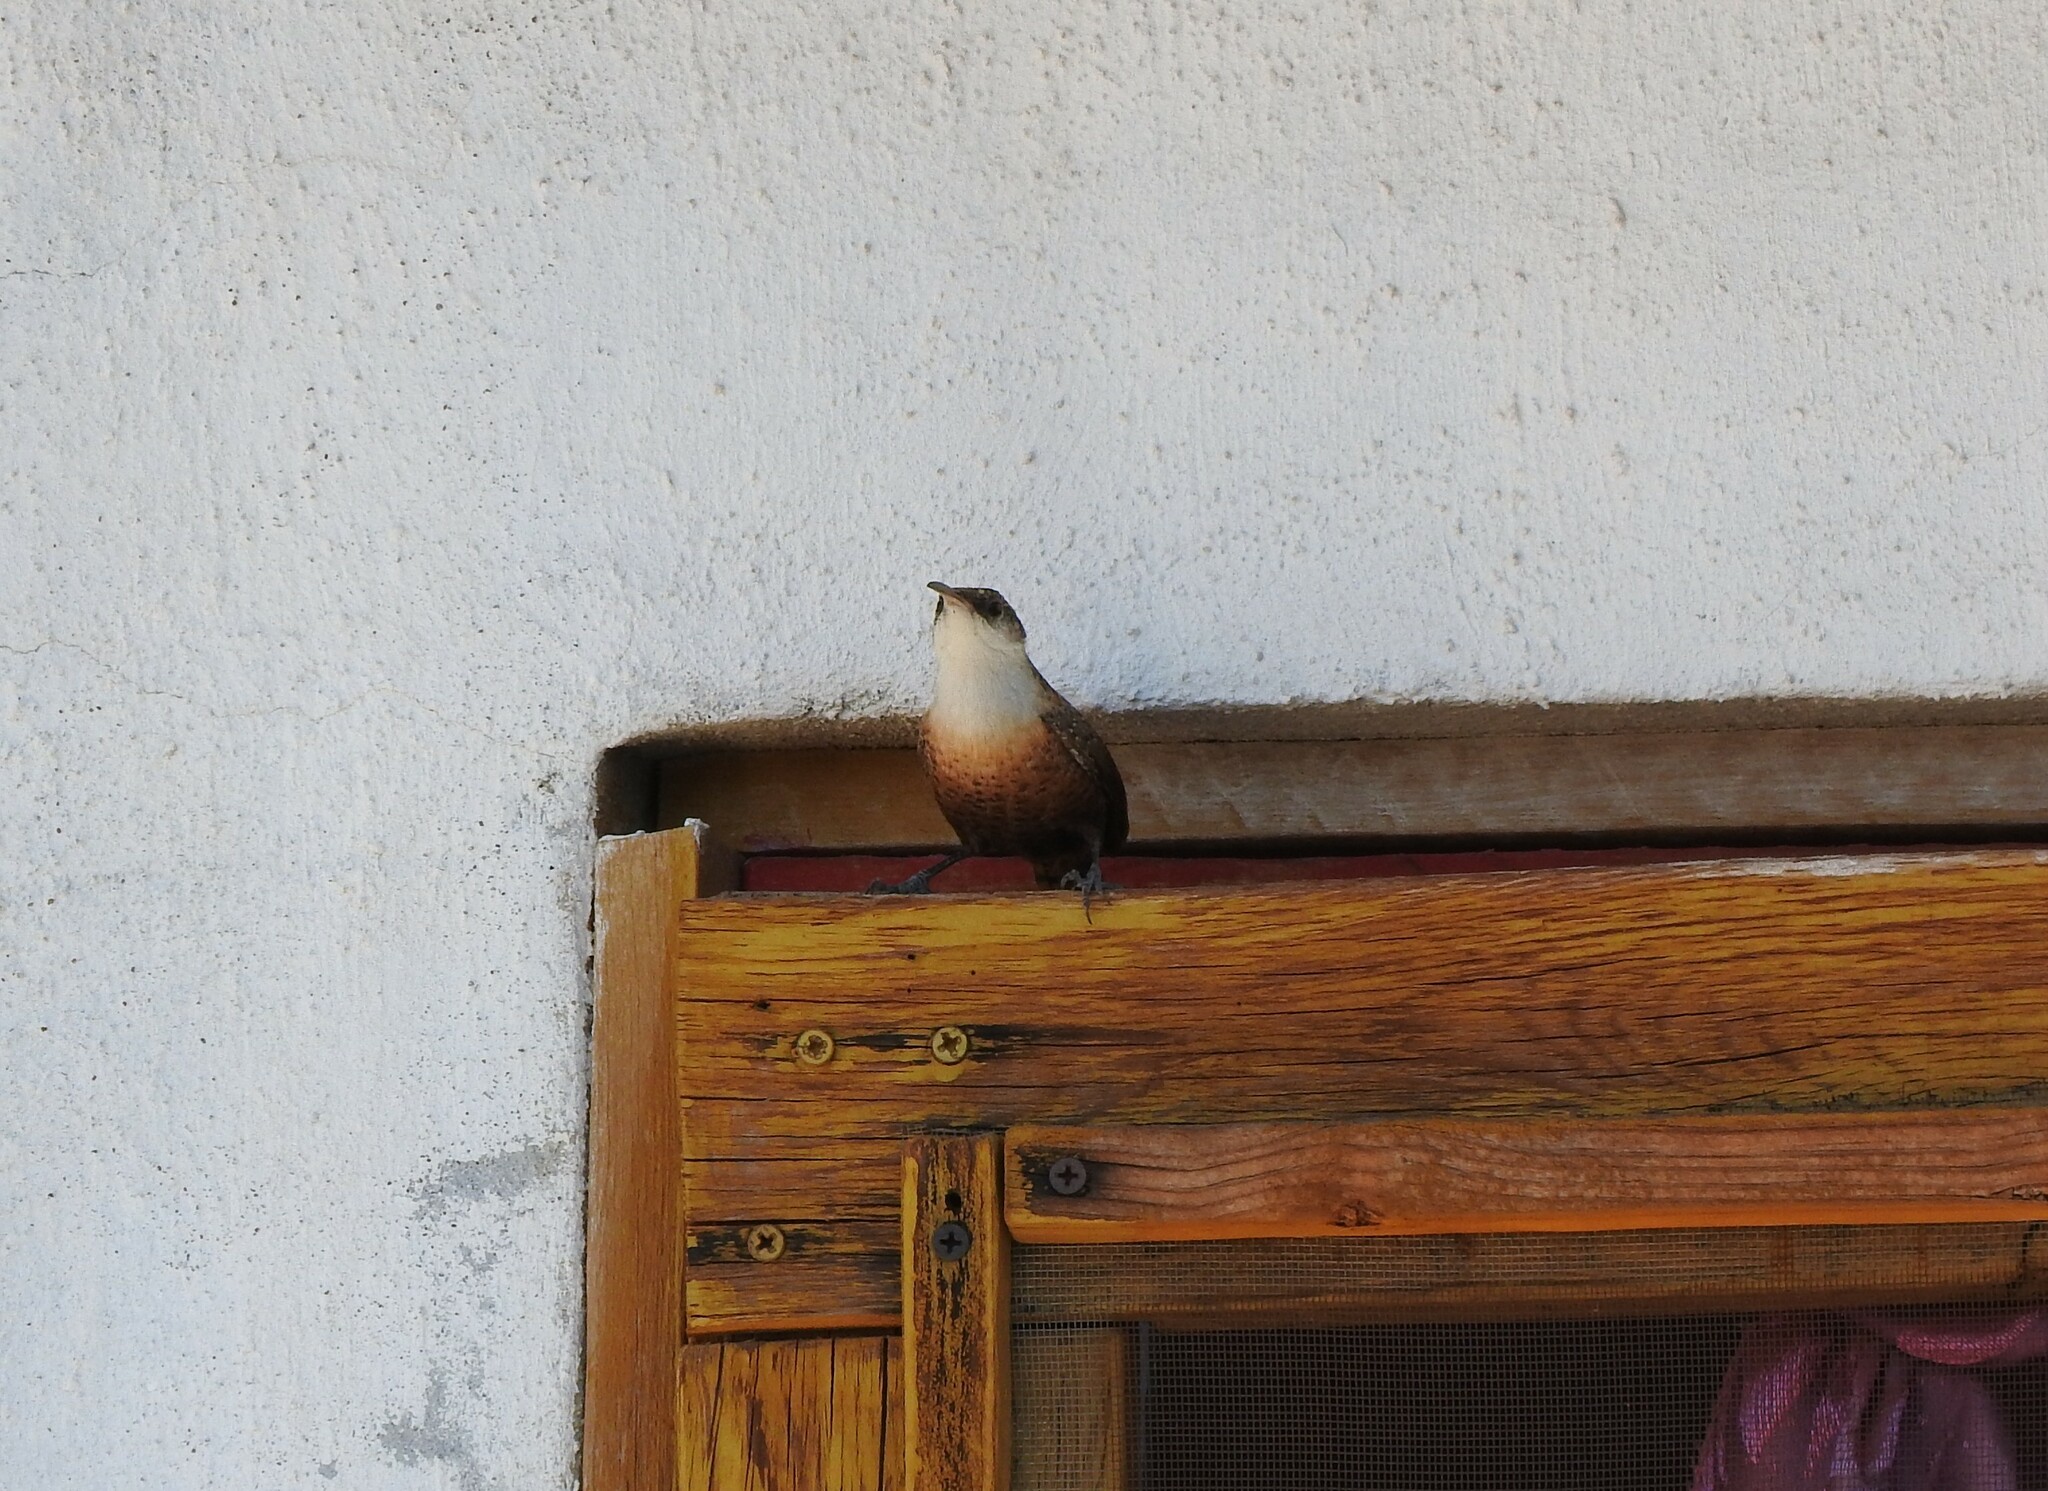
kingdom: Animalia
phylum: Chordata
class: Aves
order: Passeriformes
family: Troglodytidae
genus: Catherpes
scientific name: Catherpes mexicanus
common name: Canyon wren
